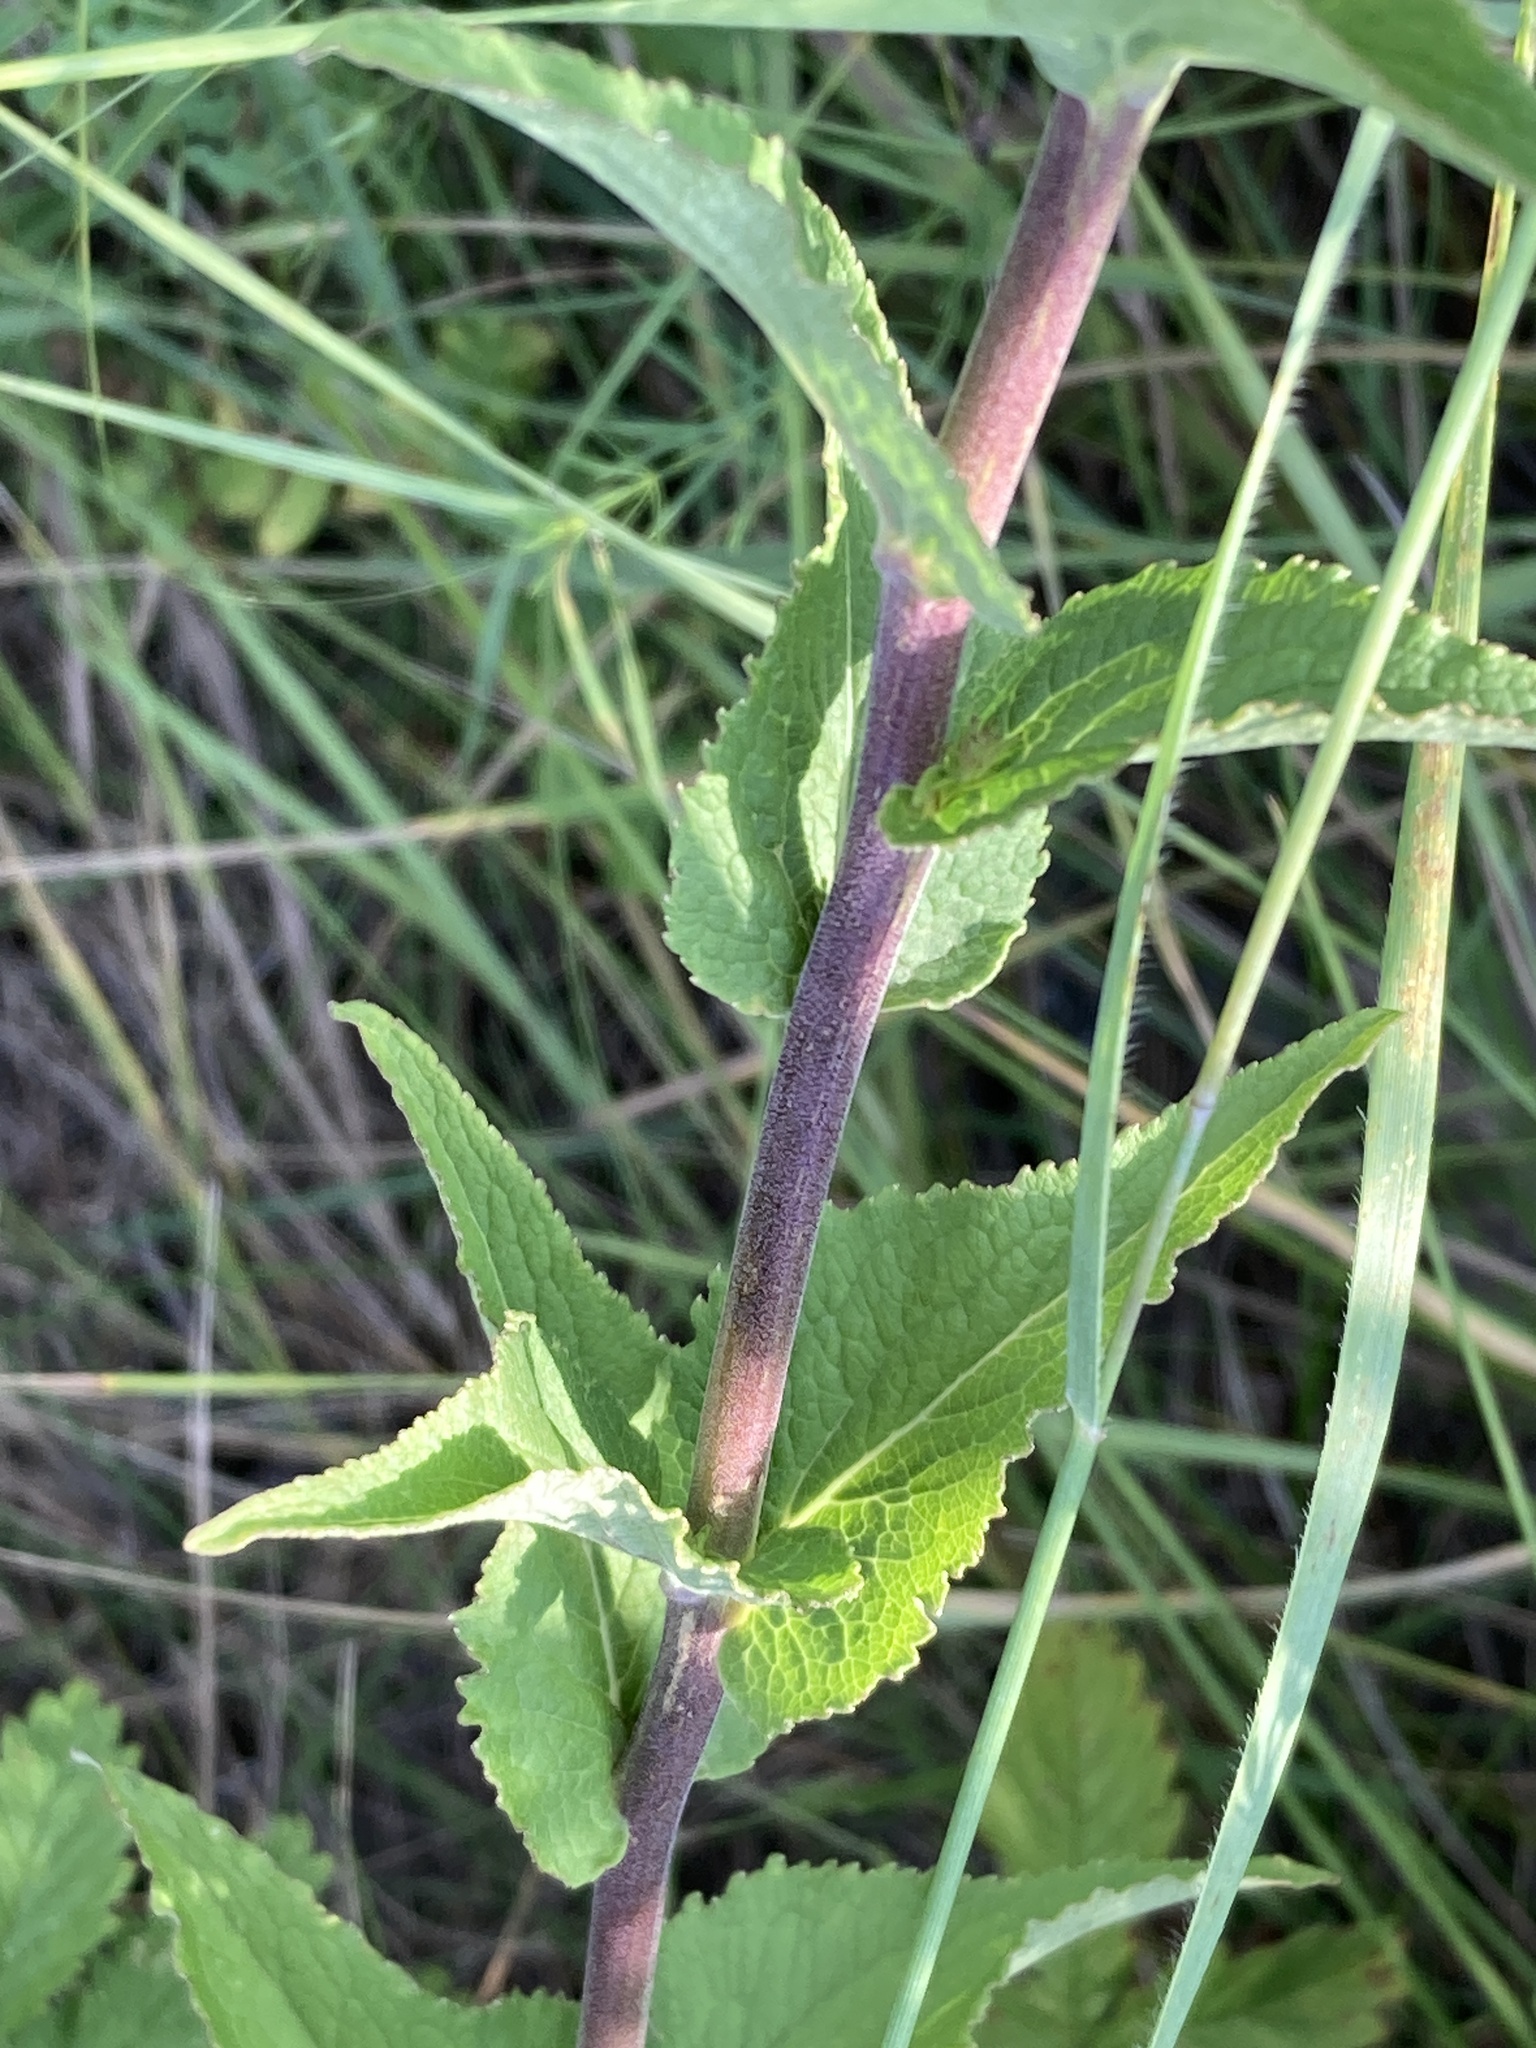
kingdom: Plantae
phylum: Tracheophyta
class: Magnoliopsida
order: Asterales
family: Campanulaceae
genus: Campanula
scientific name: Campanula bononiensis
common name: Pale bellflower
